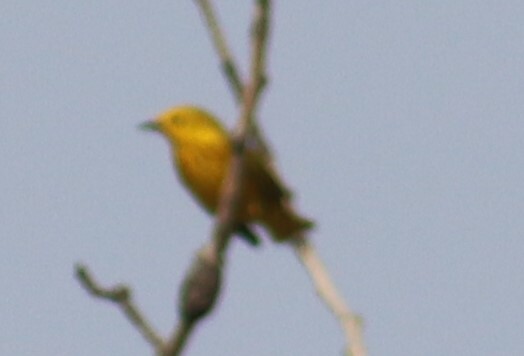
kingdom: Animalia
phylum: Chordata
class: Aves
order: Passeriformes
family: Parulidae
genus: Setophaga
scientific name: Setophaga petechia
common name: Yellow warbler
